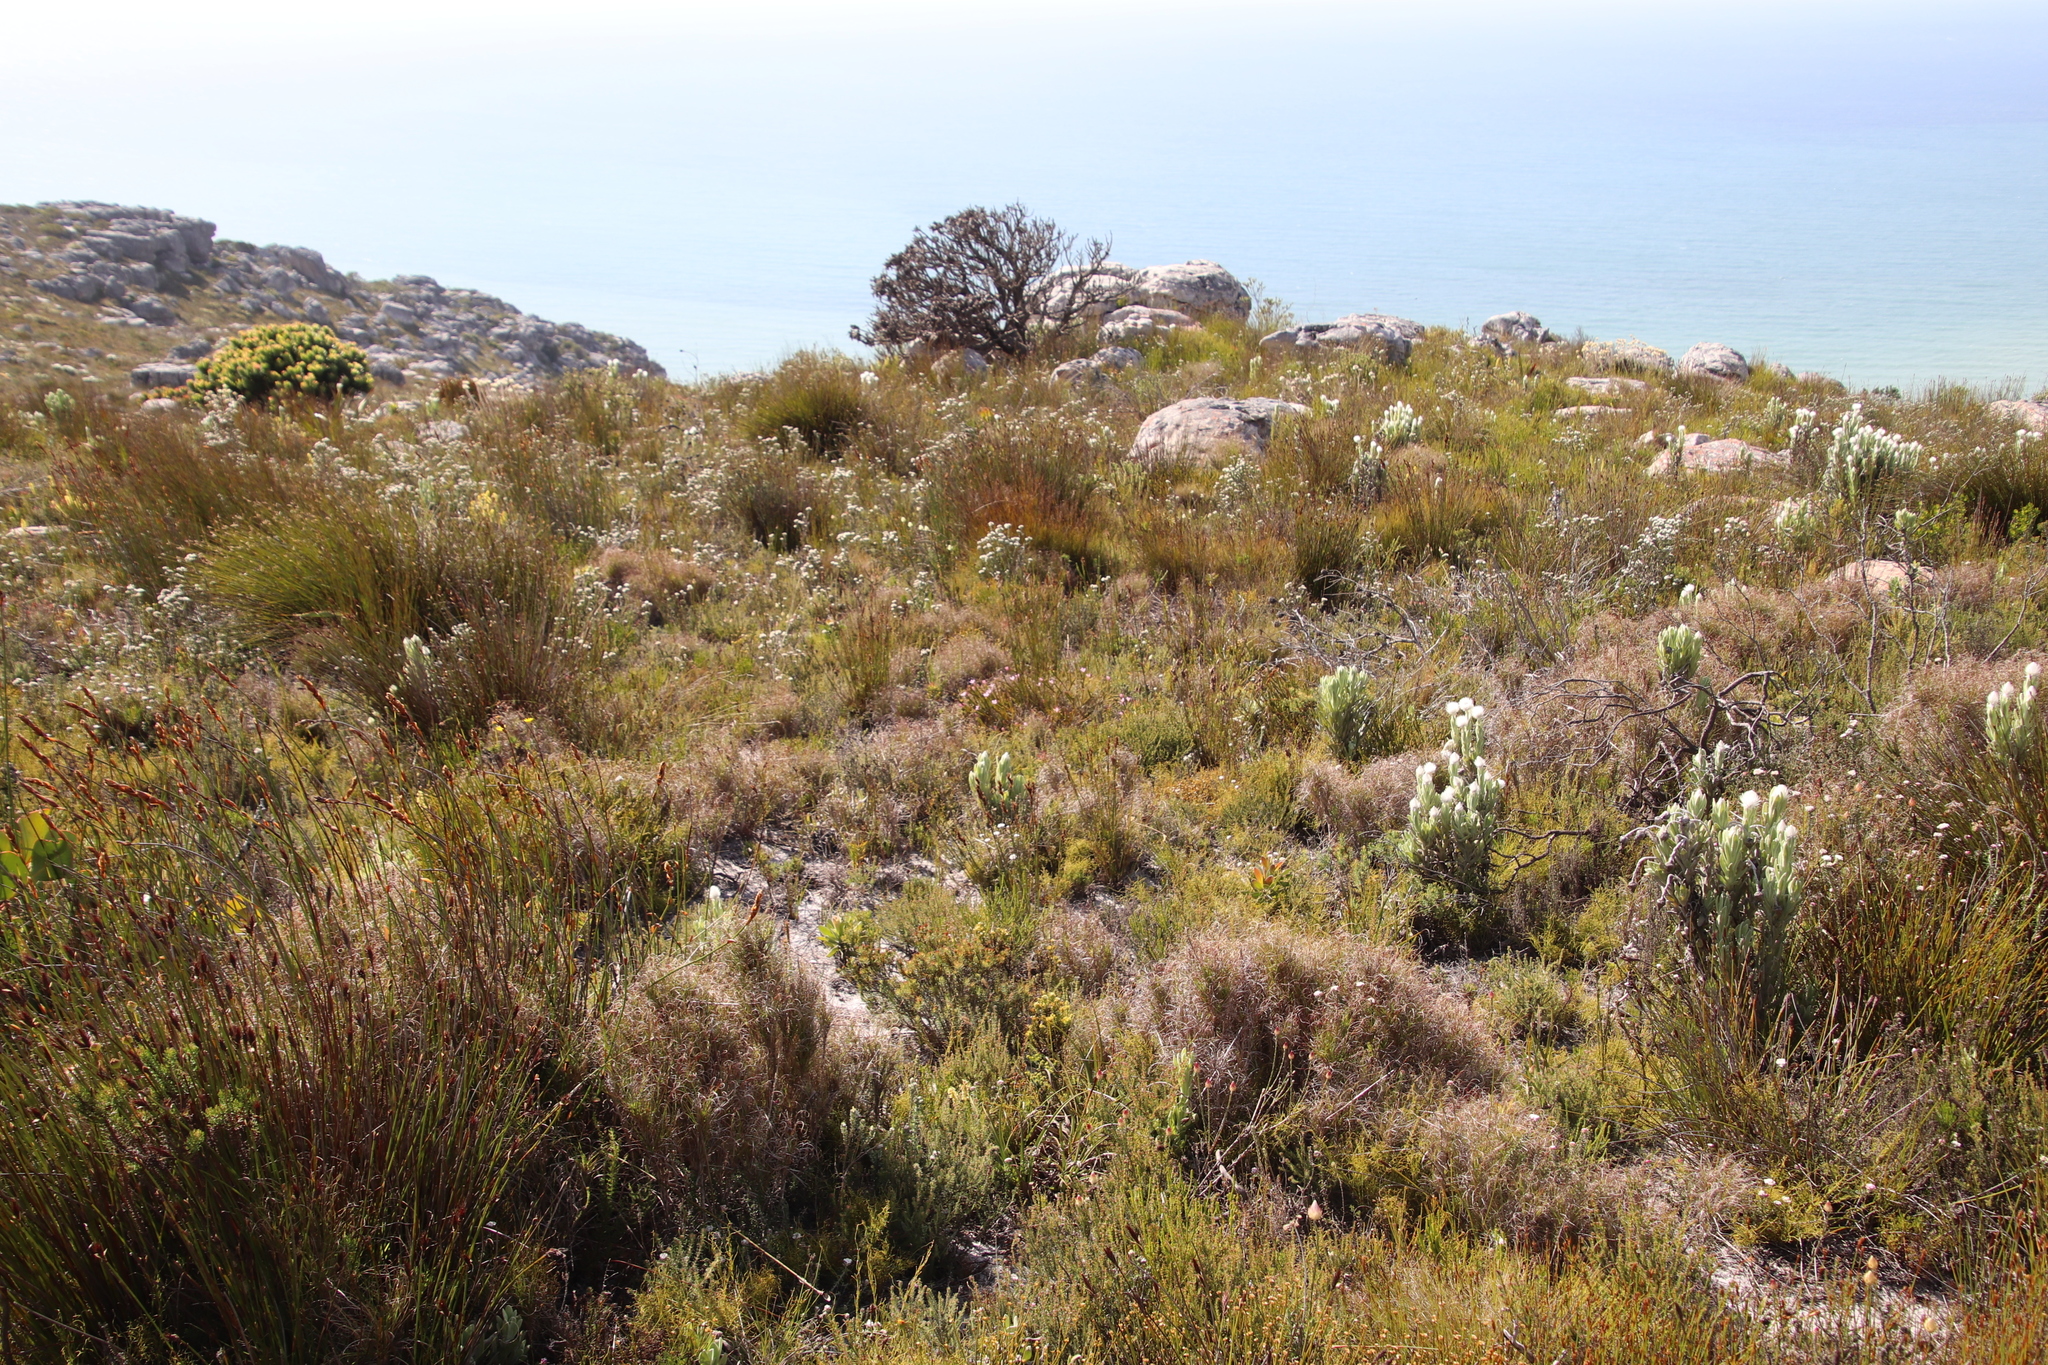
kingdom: Plantae
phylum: Tracheophyta
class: Liliopsida
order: Poales
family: Poaceae
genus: Pseudopentameris
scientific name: Pseudopentameris macrantha
